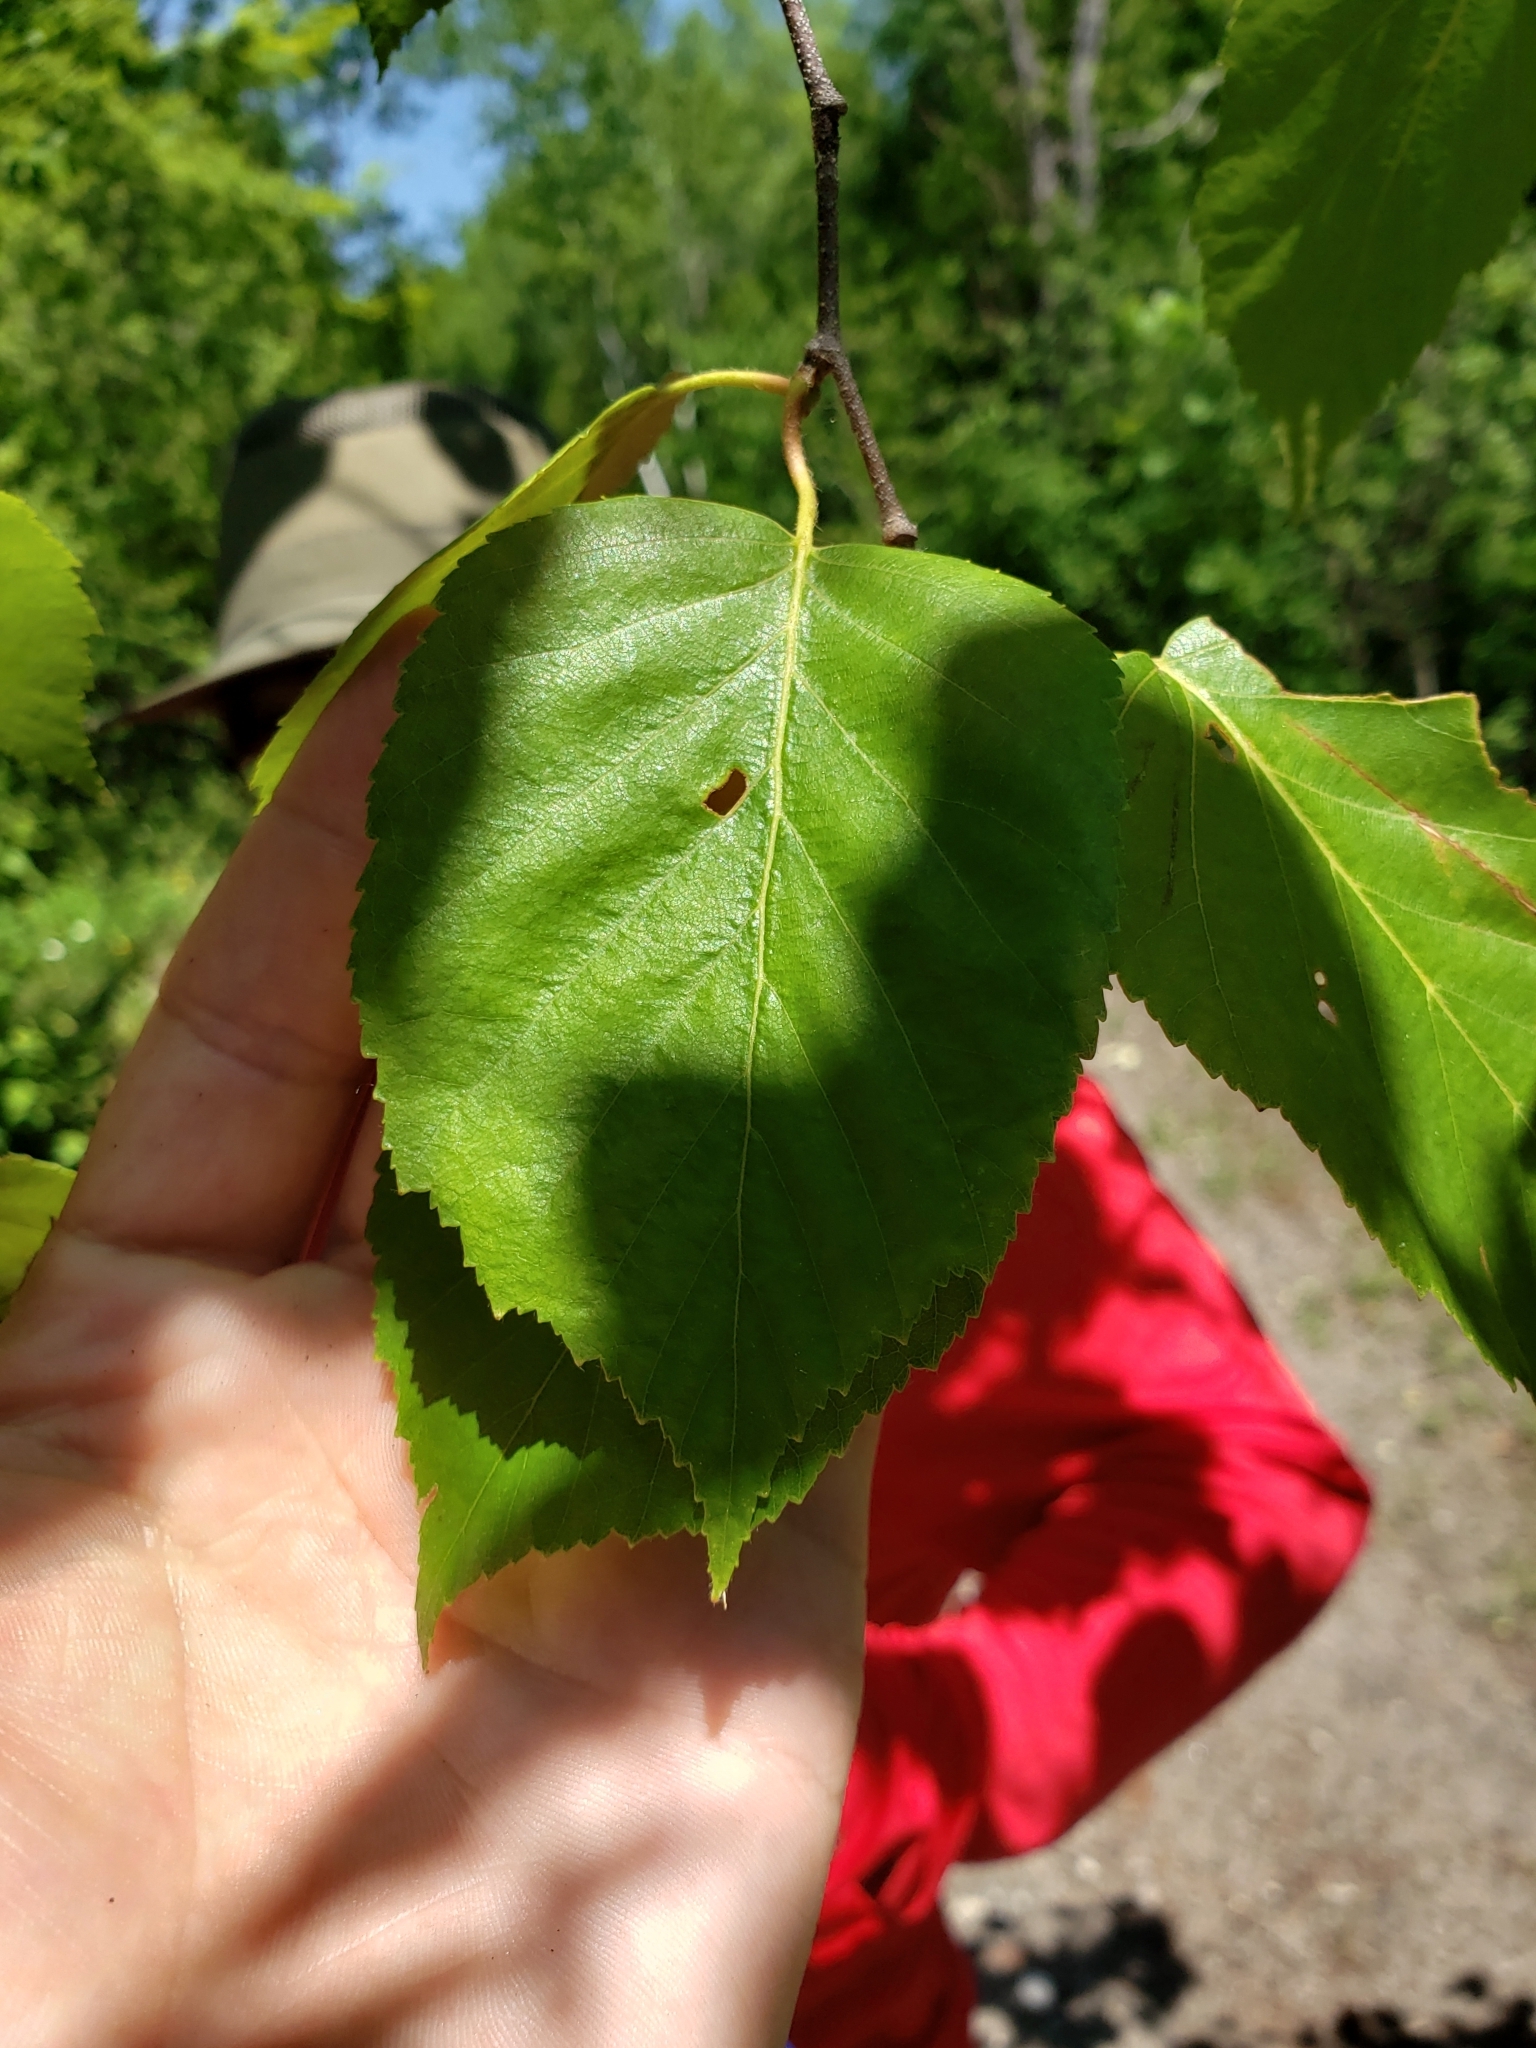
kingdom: Plantae
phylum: Tracheophyta
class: Magnoliopsida
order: Fagales
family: Betulaceae
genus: Betula
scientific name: Betula papyrifera
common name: Paper birch
